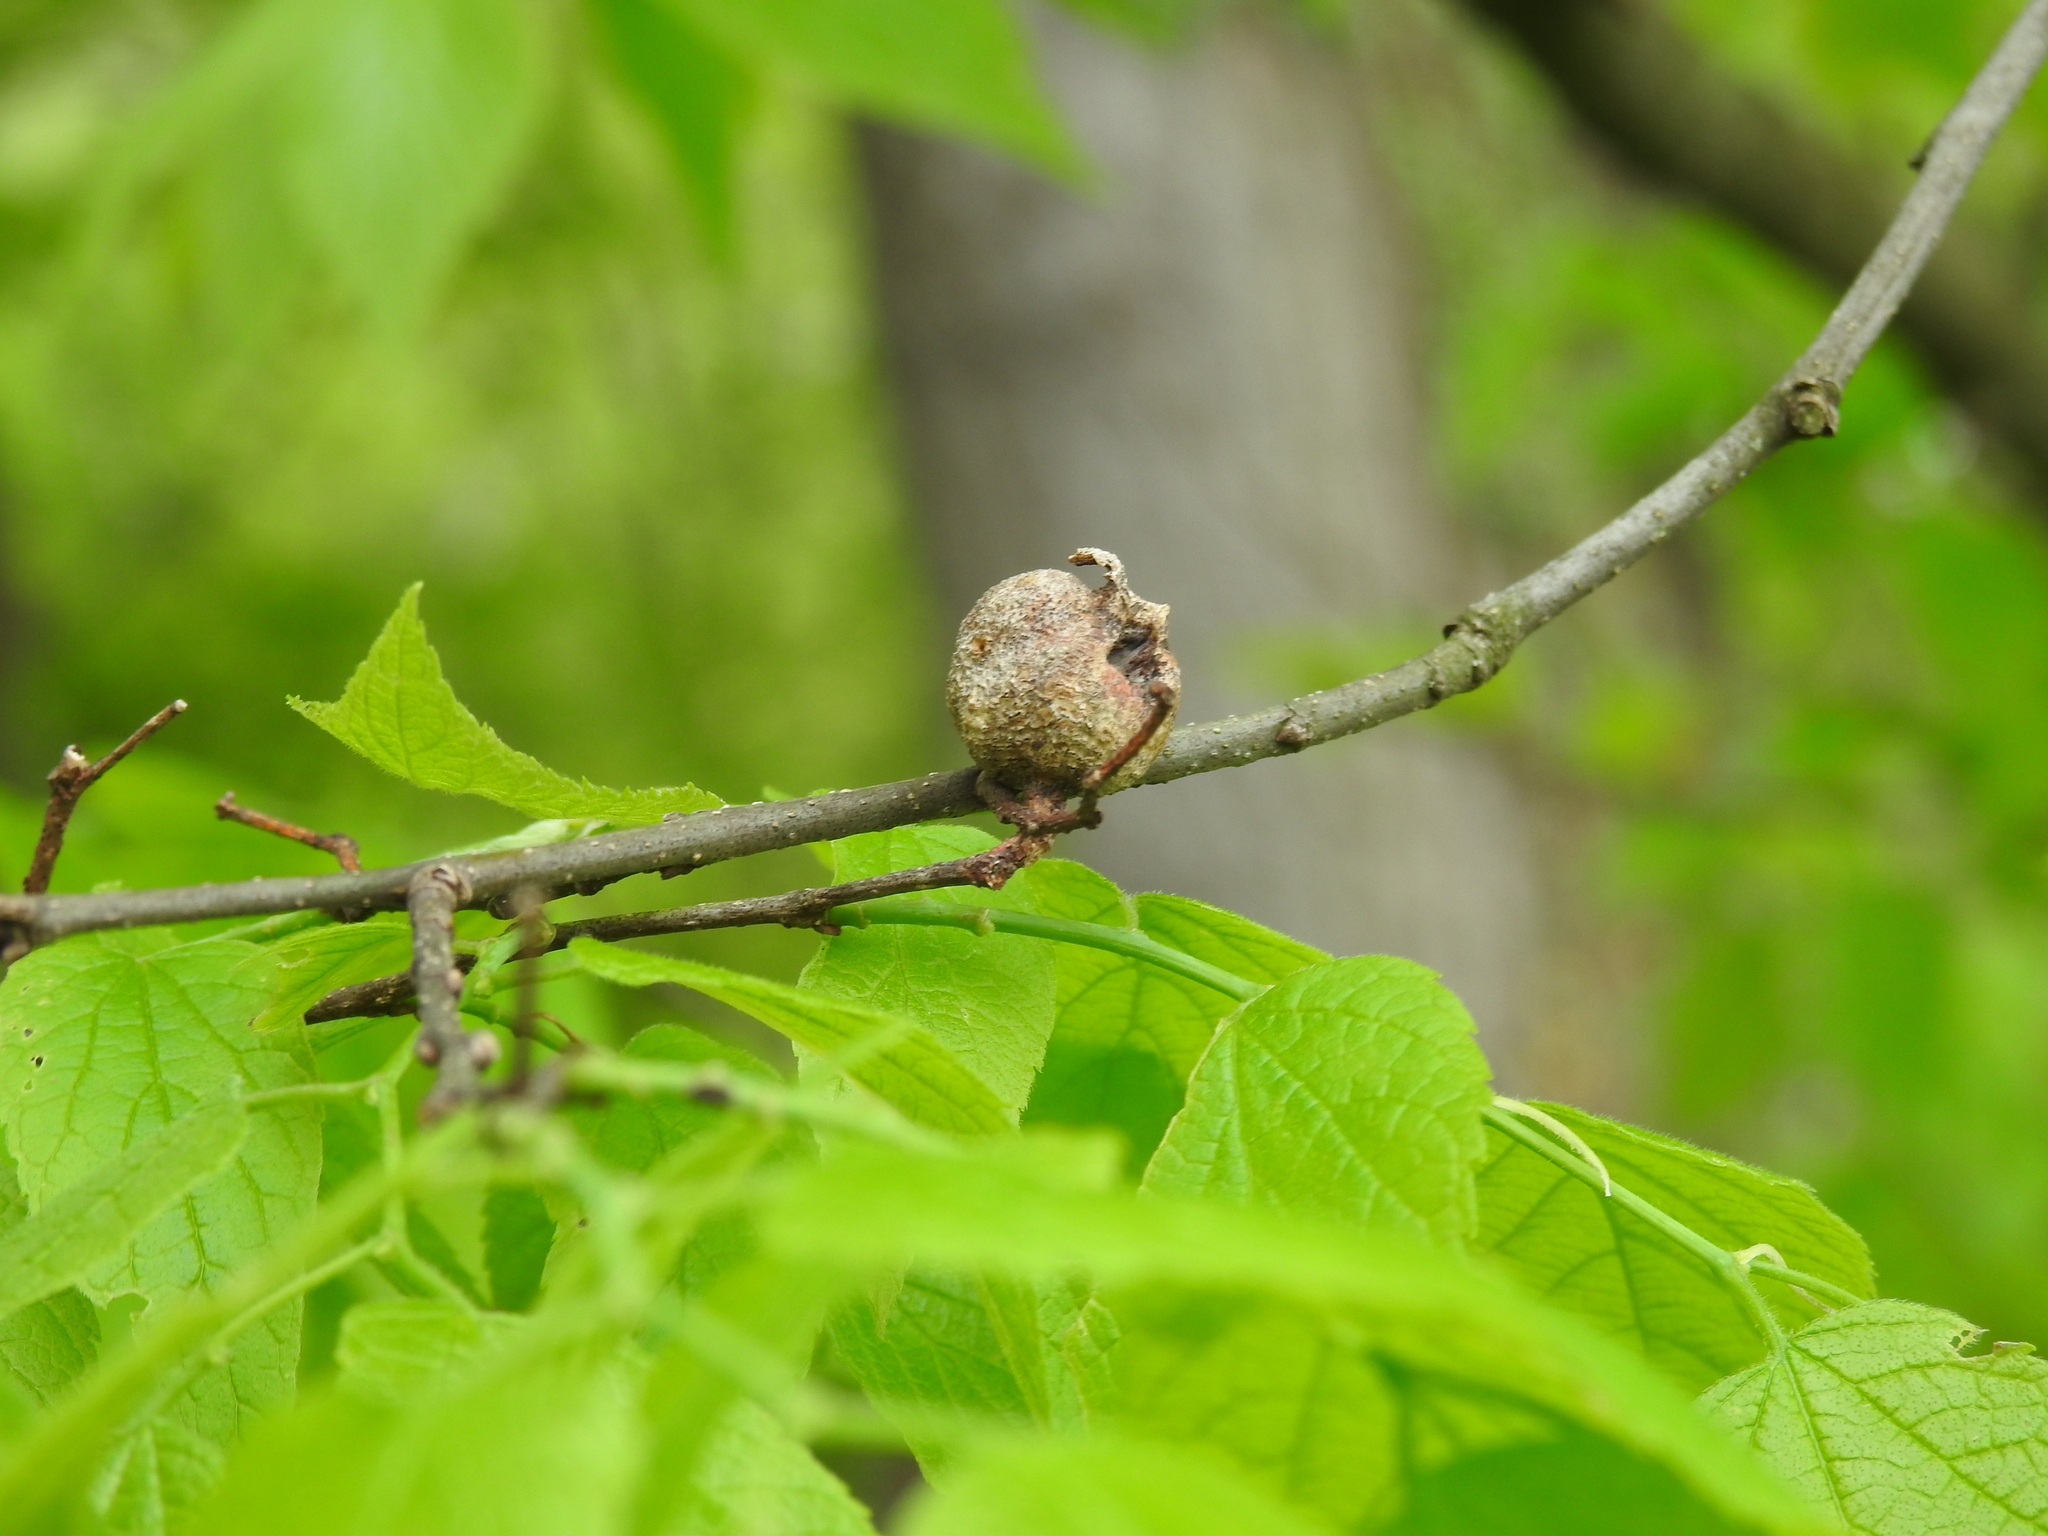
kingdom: Animalia
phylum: Arthropoda
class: Insecta
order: Hemiptera
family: Aphalaridae
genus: Pachypsylla
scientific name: Pachypsylla venusta
